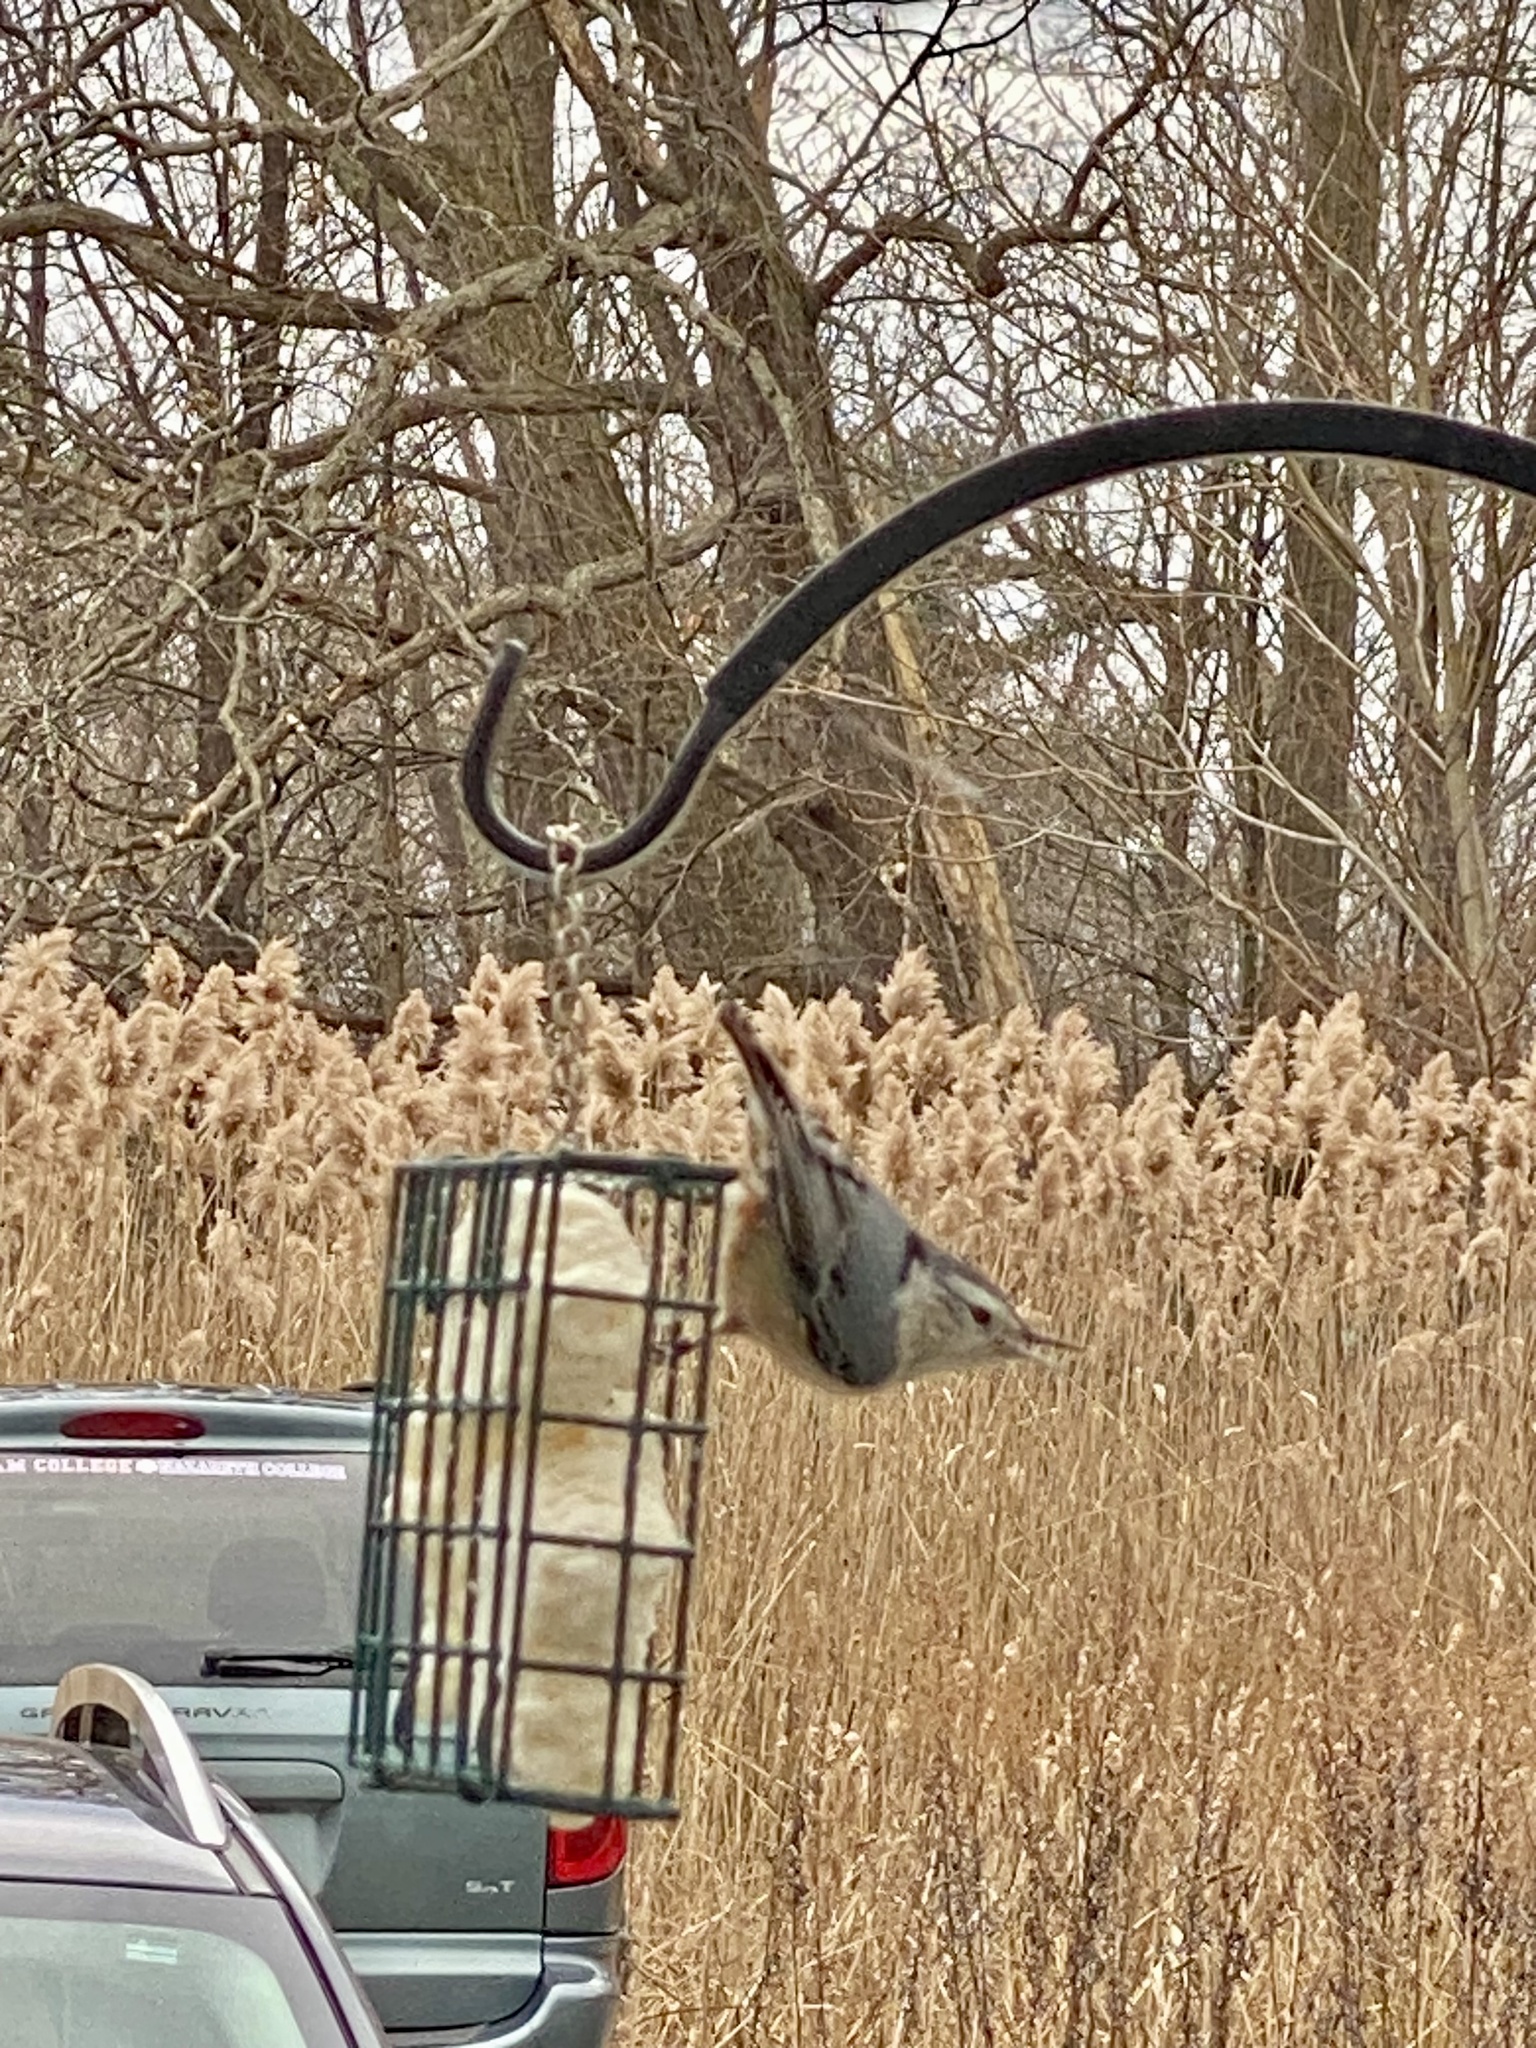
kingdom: Animalia
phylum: Chordata
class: Aves
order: Passeriformes
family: Sittidae
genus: Sitta
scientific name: Sitta carolinensis
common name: White-breasted nuthatch
